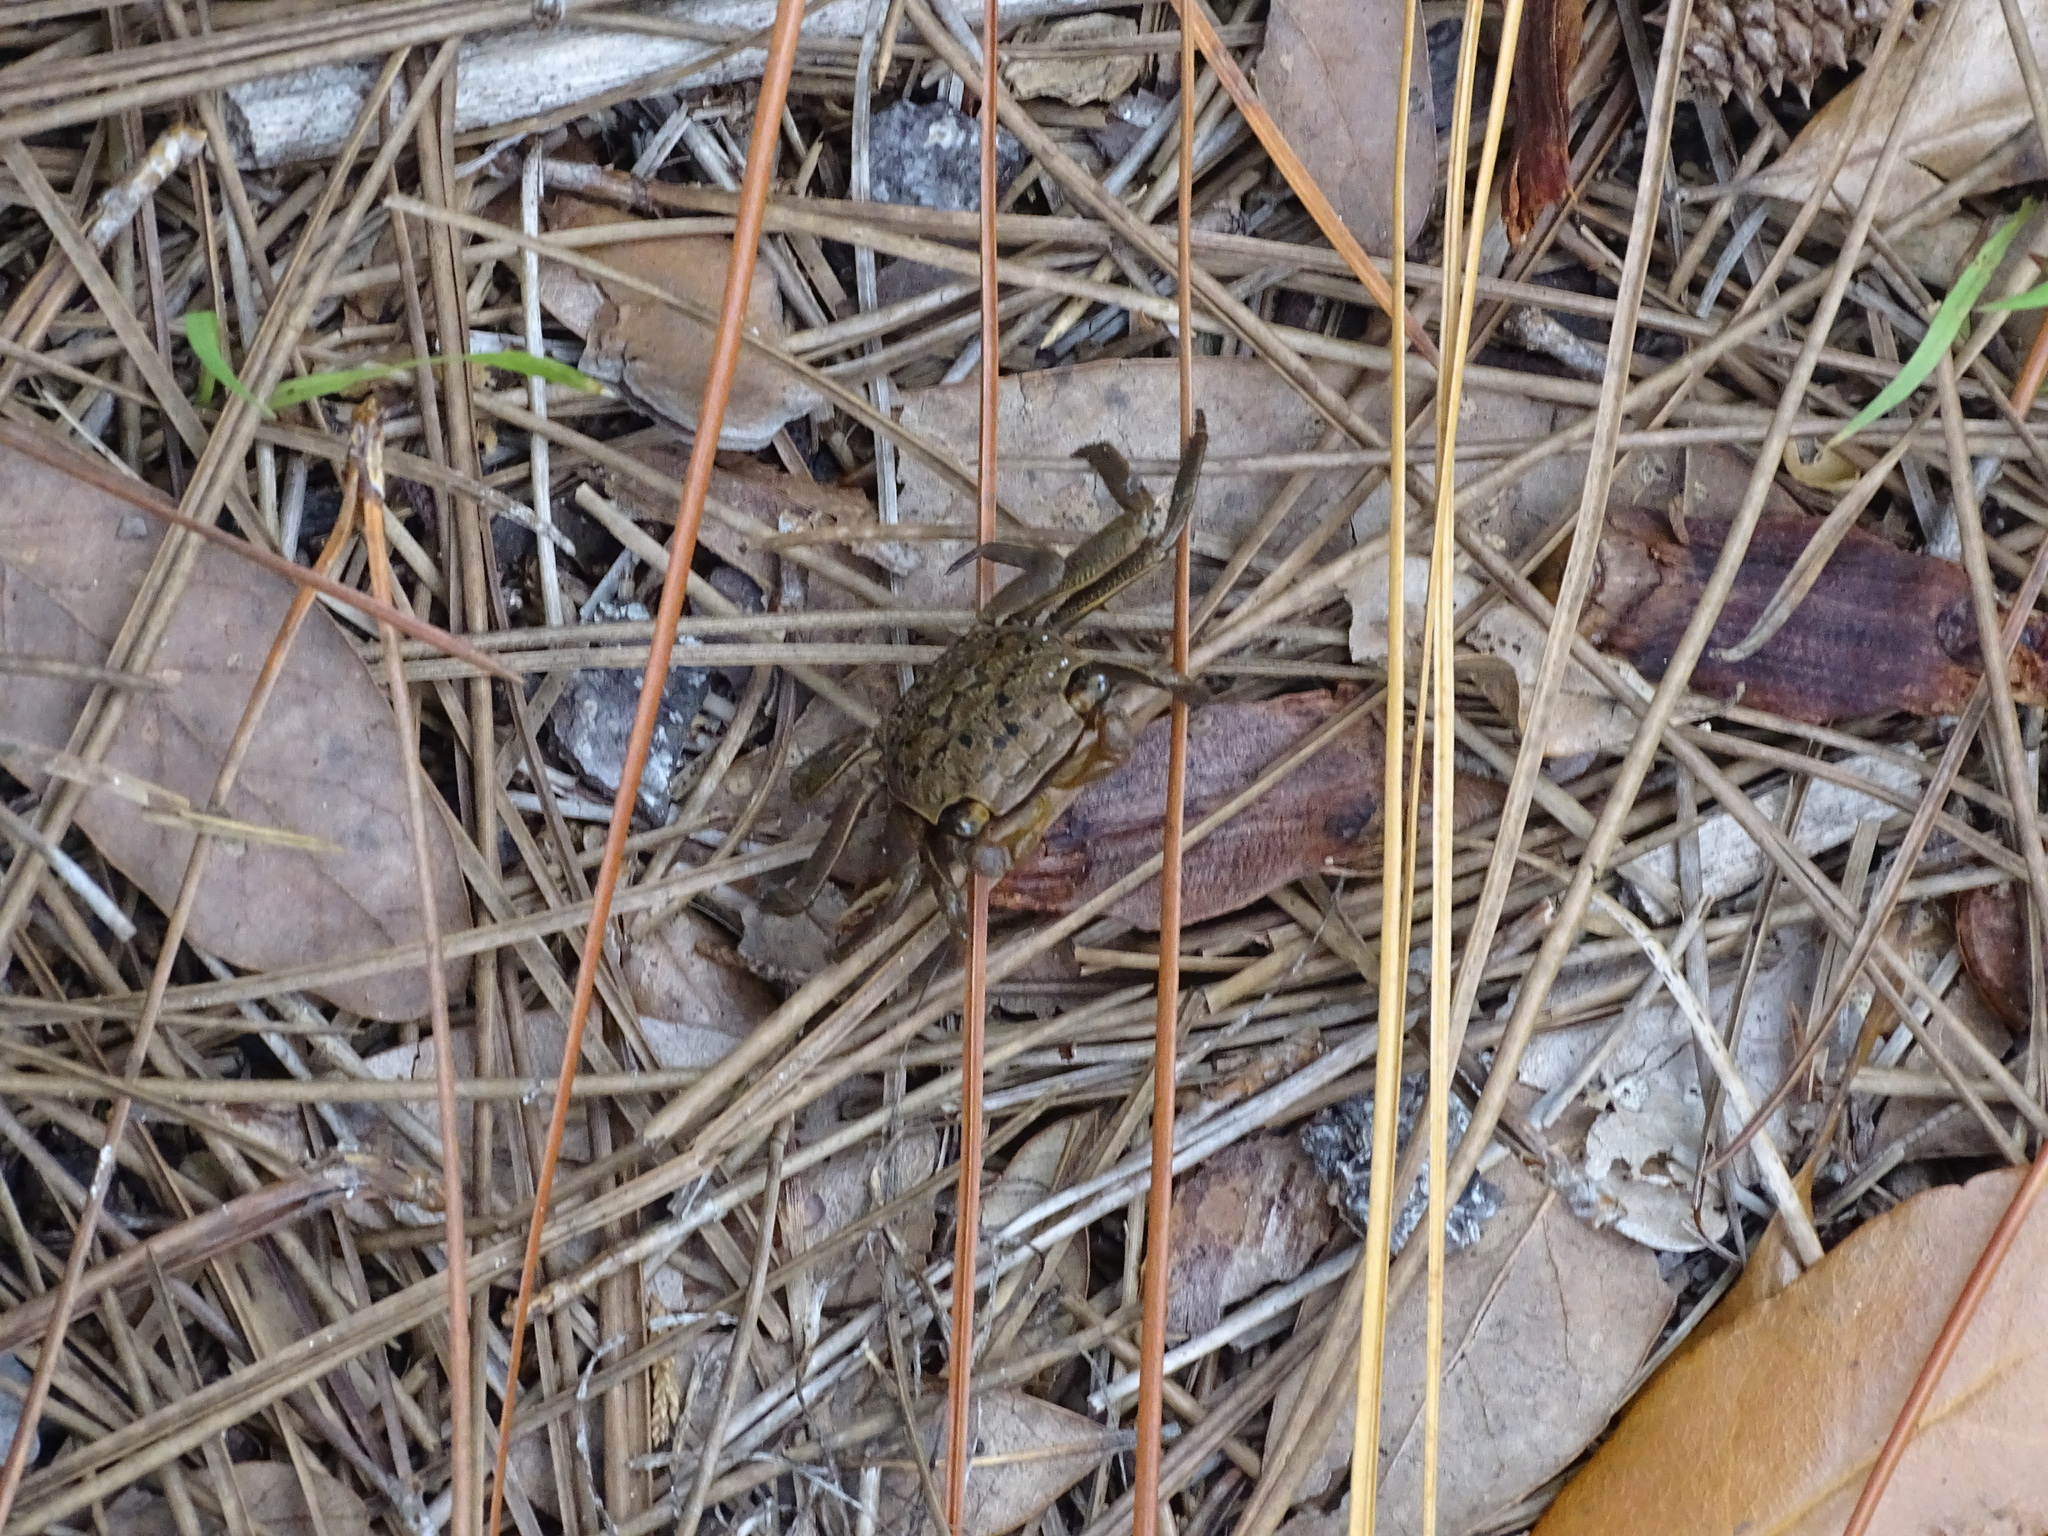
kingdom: Animalia
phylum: Arthropoda
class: Malacostraca
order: Decapoda
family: Sesarmidae
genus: Armases
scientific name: Armases cinereum
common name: Squareback marsh crab
